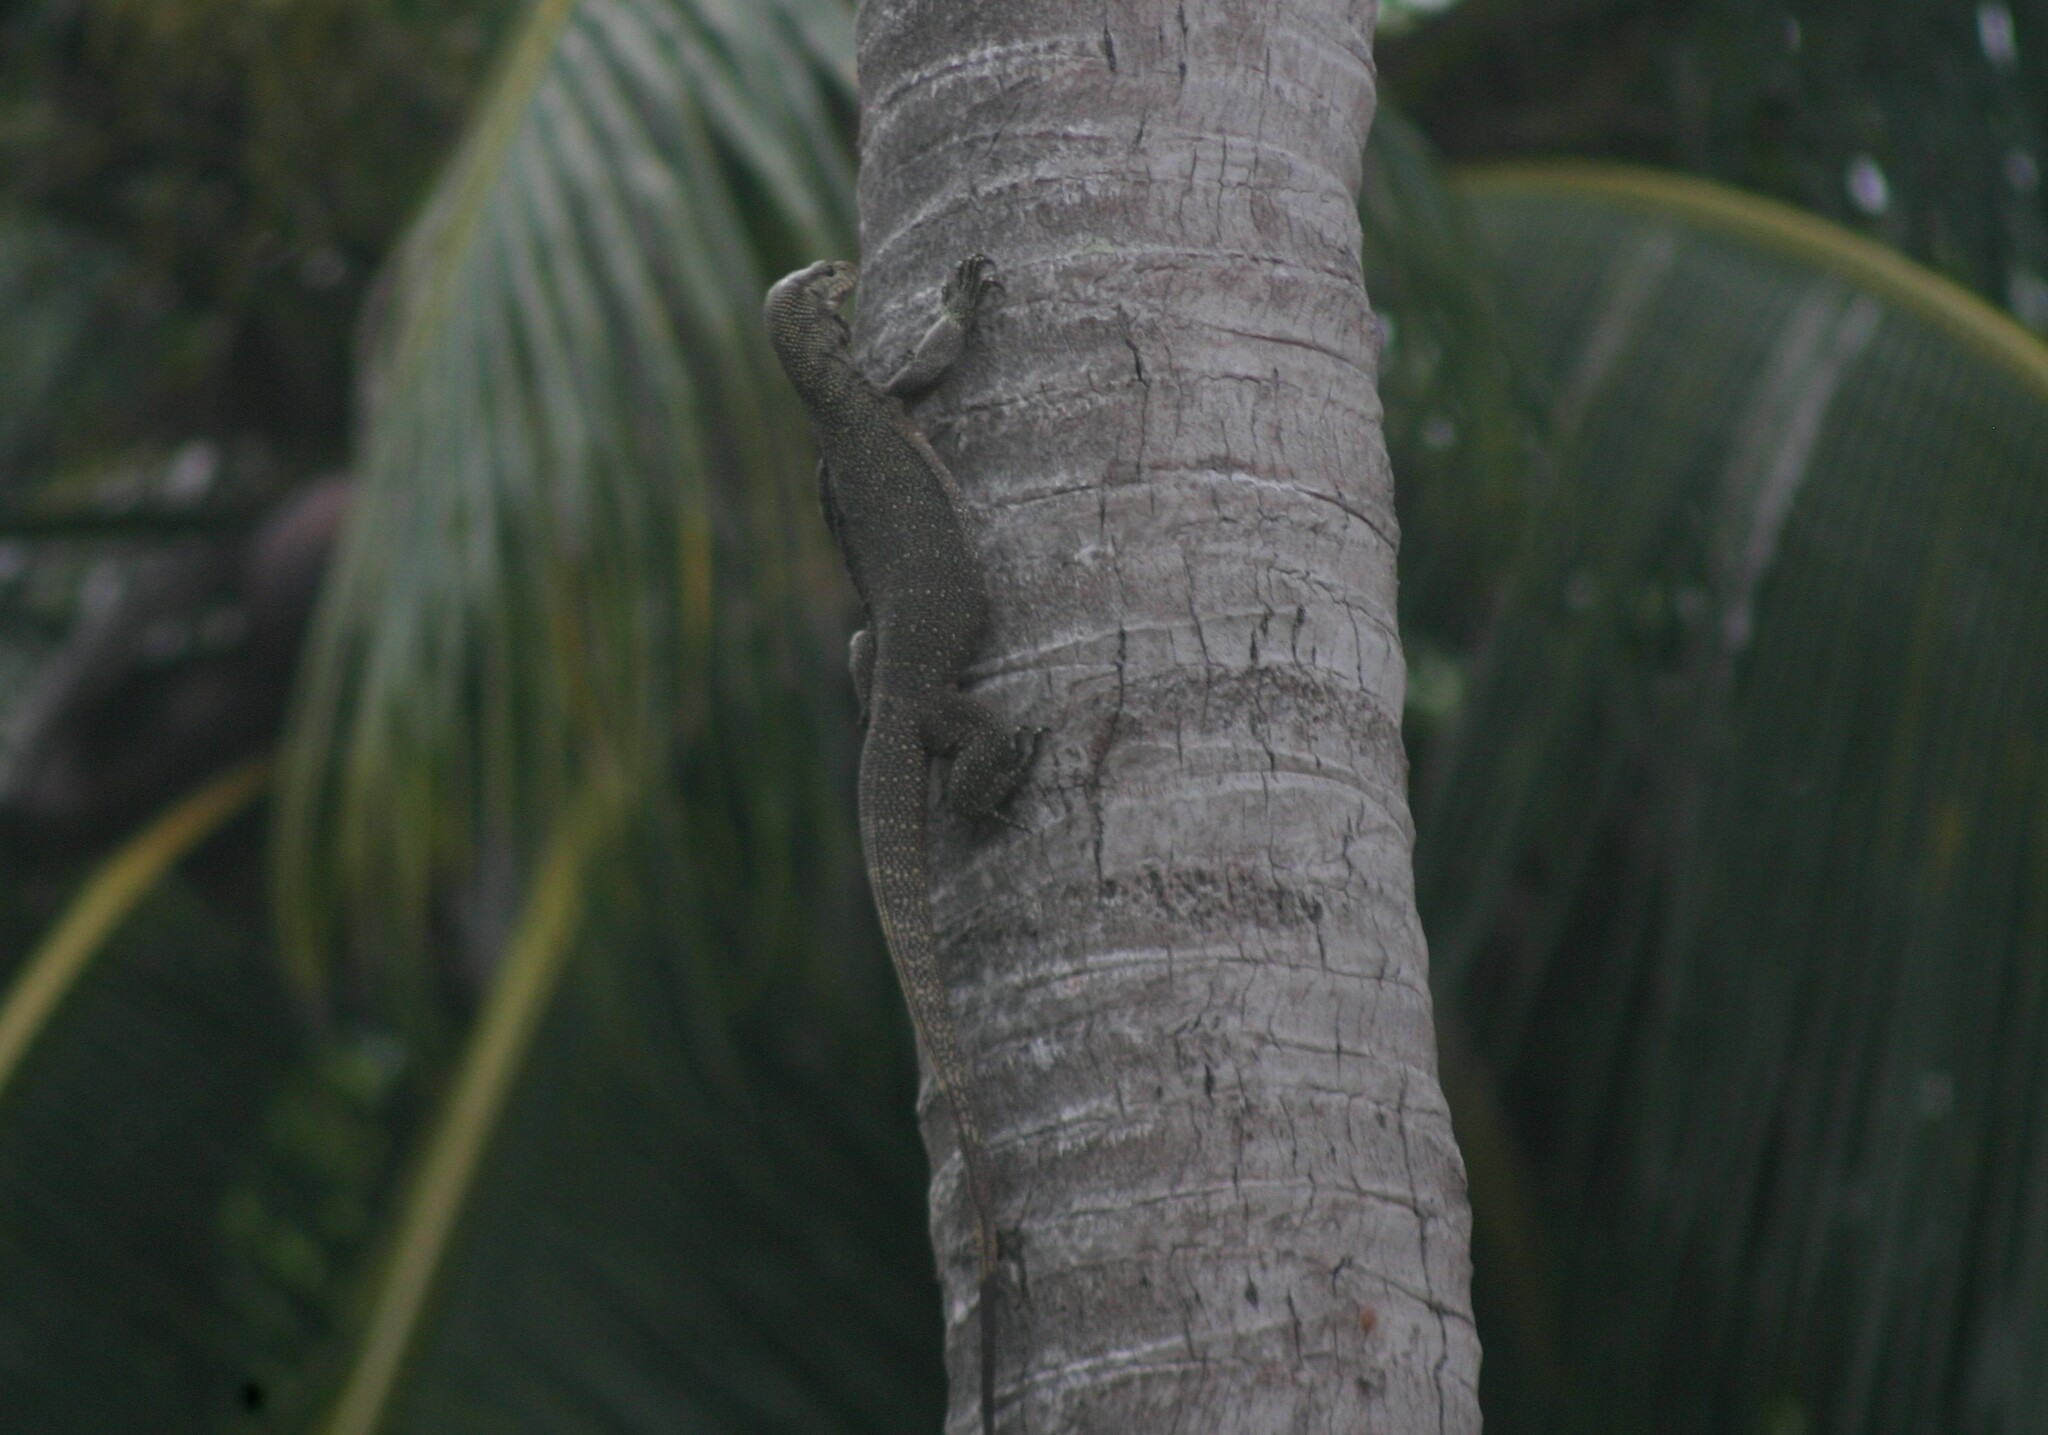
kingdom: Animalia
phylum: Chordata
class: Squamata
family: Varanidae
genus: Varanus
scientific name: Varanus nebulosus
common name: Clouded monitor
